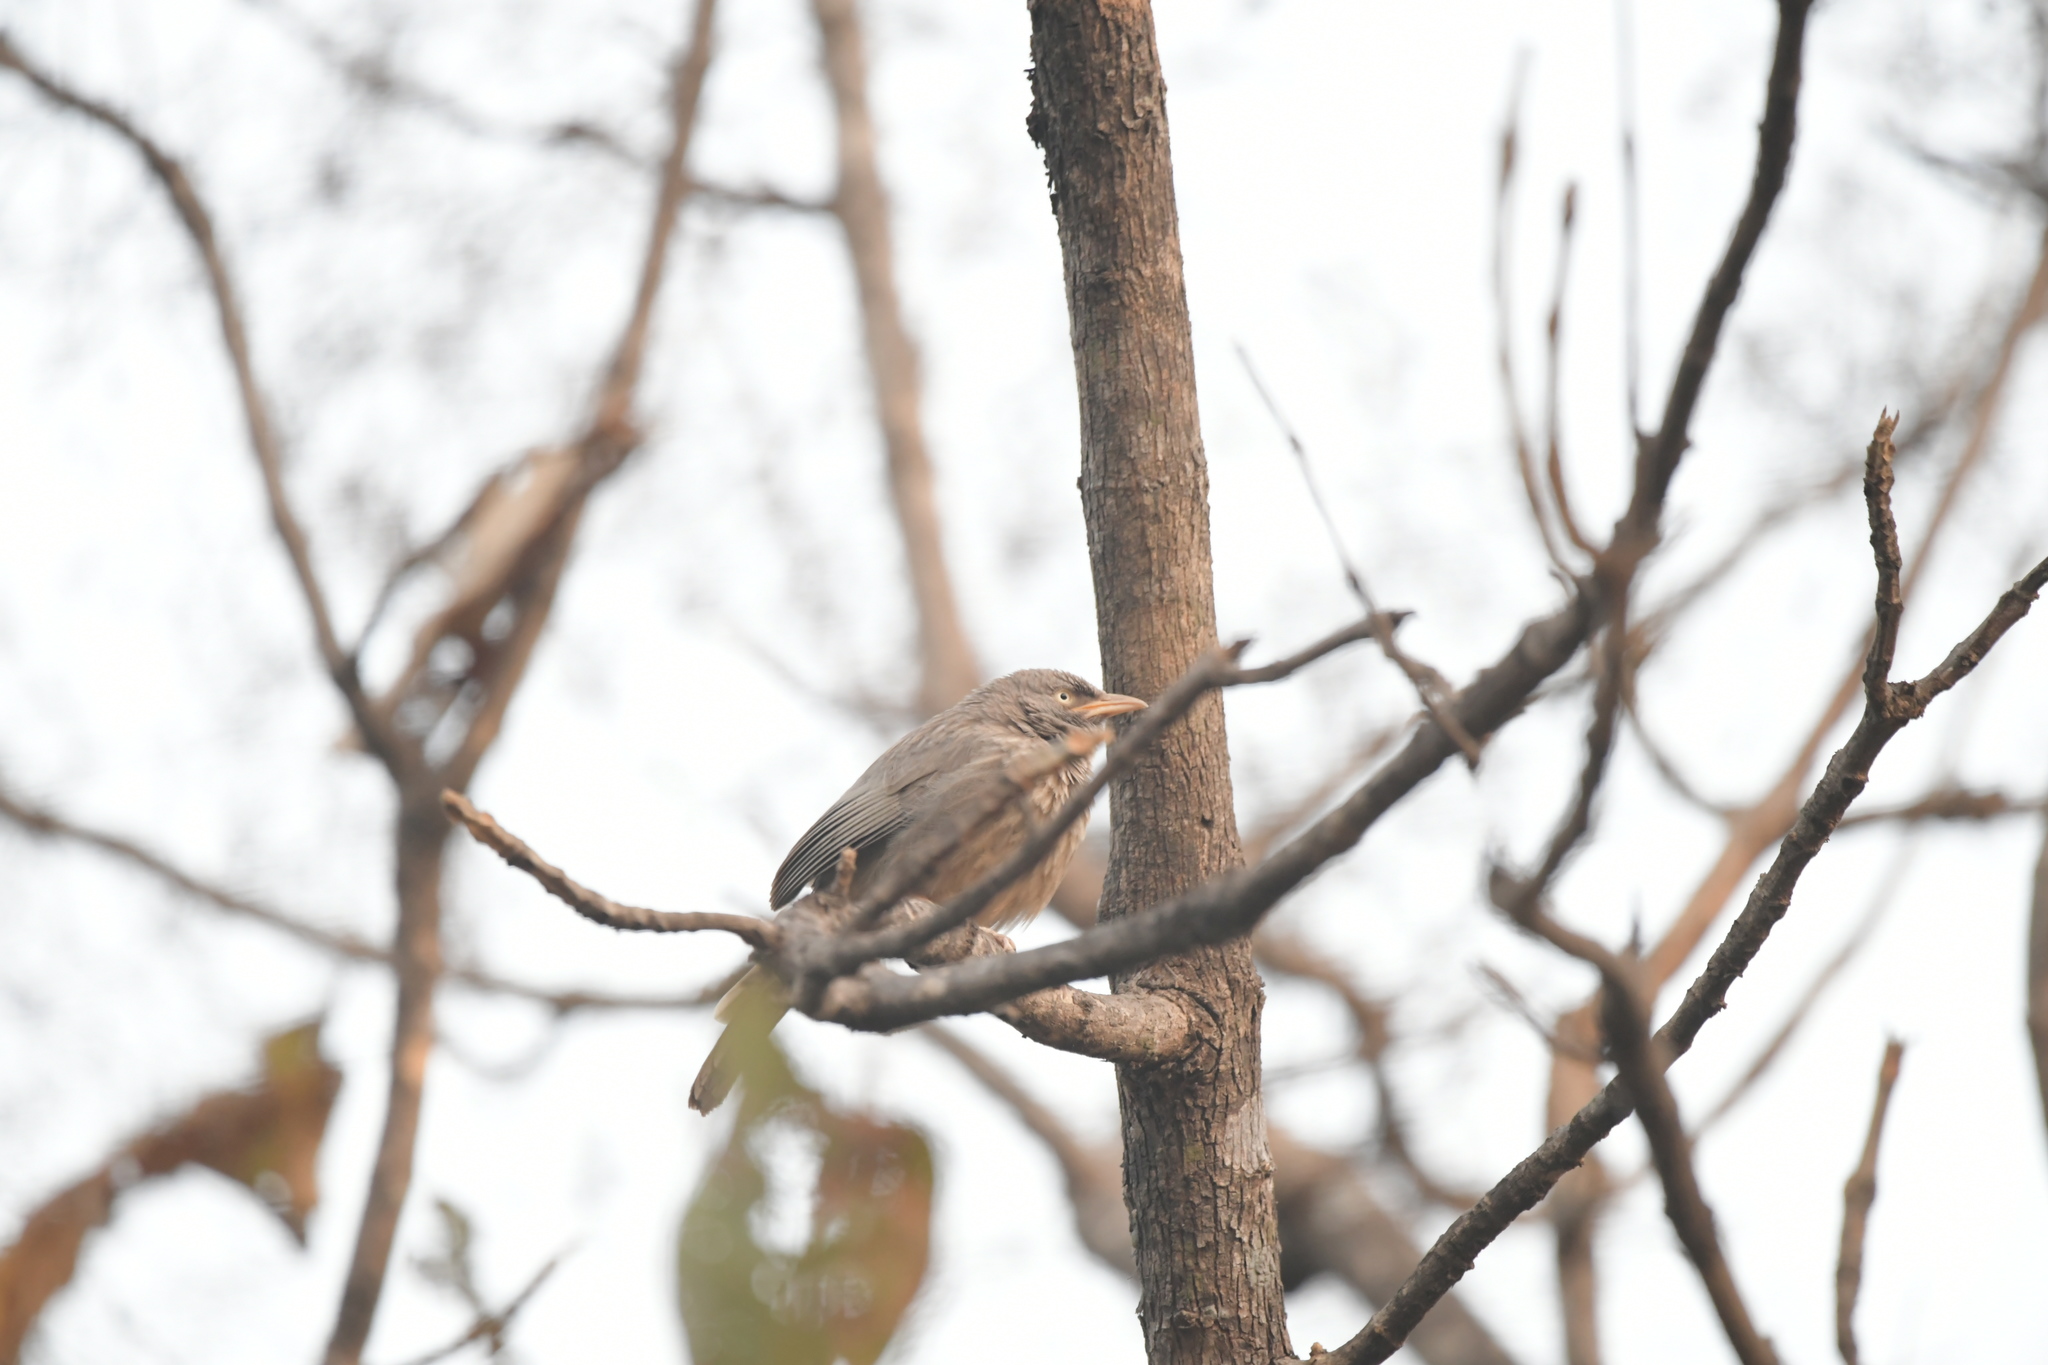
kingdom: Animalia
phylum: Chordata
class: Aves
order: Passeriformes
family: Leiothrichidae
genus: Turdoides
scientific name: Turdoides striata
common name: Jungle babbler
